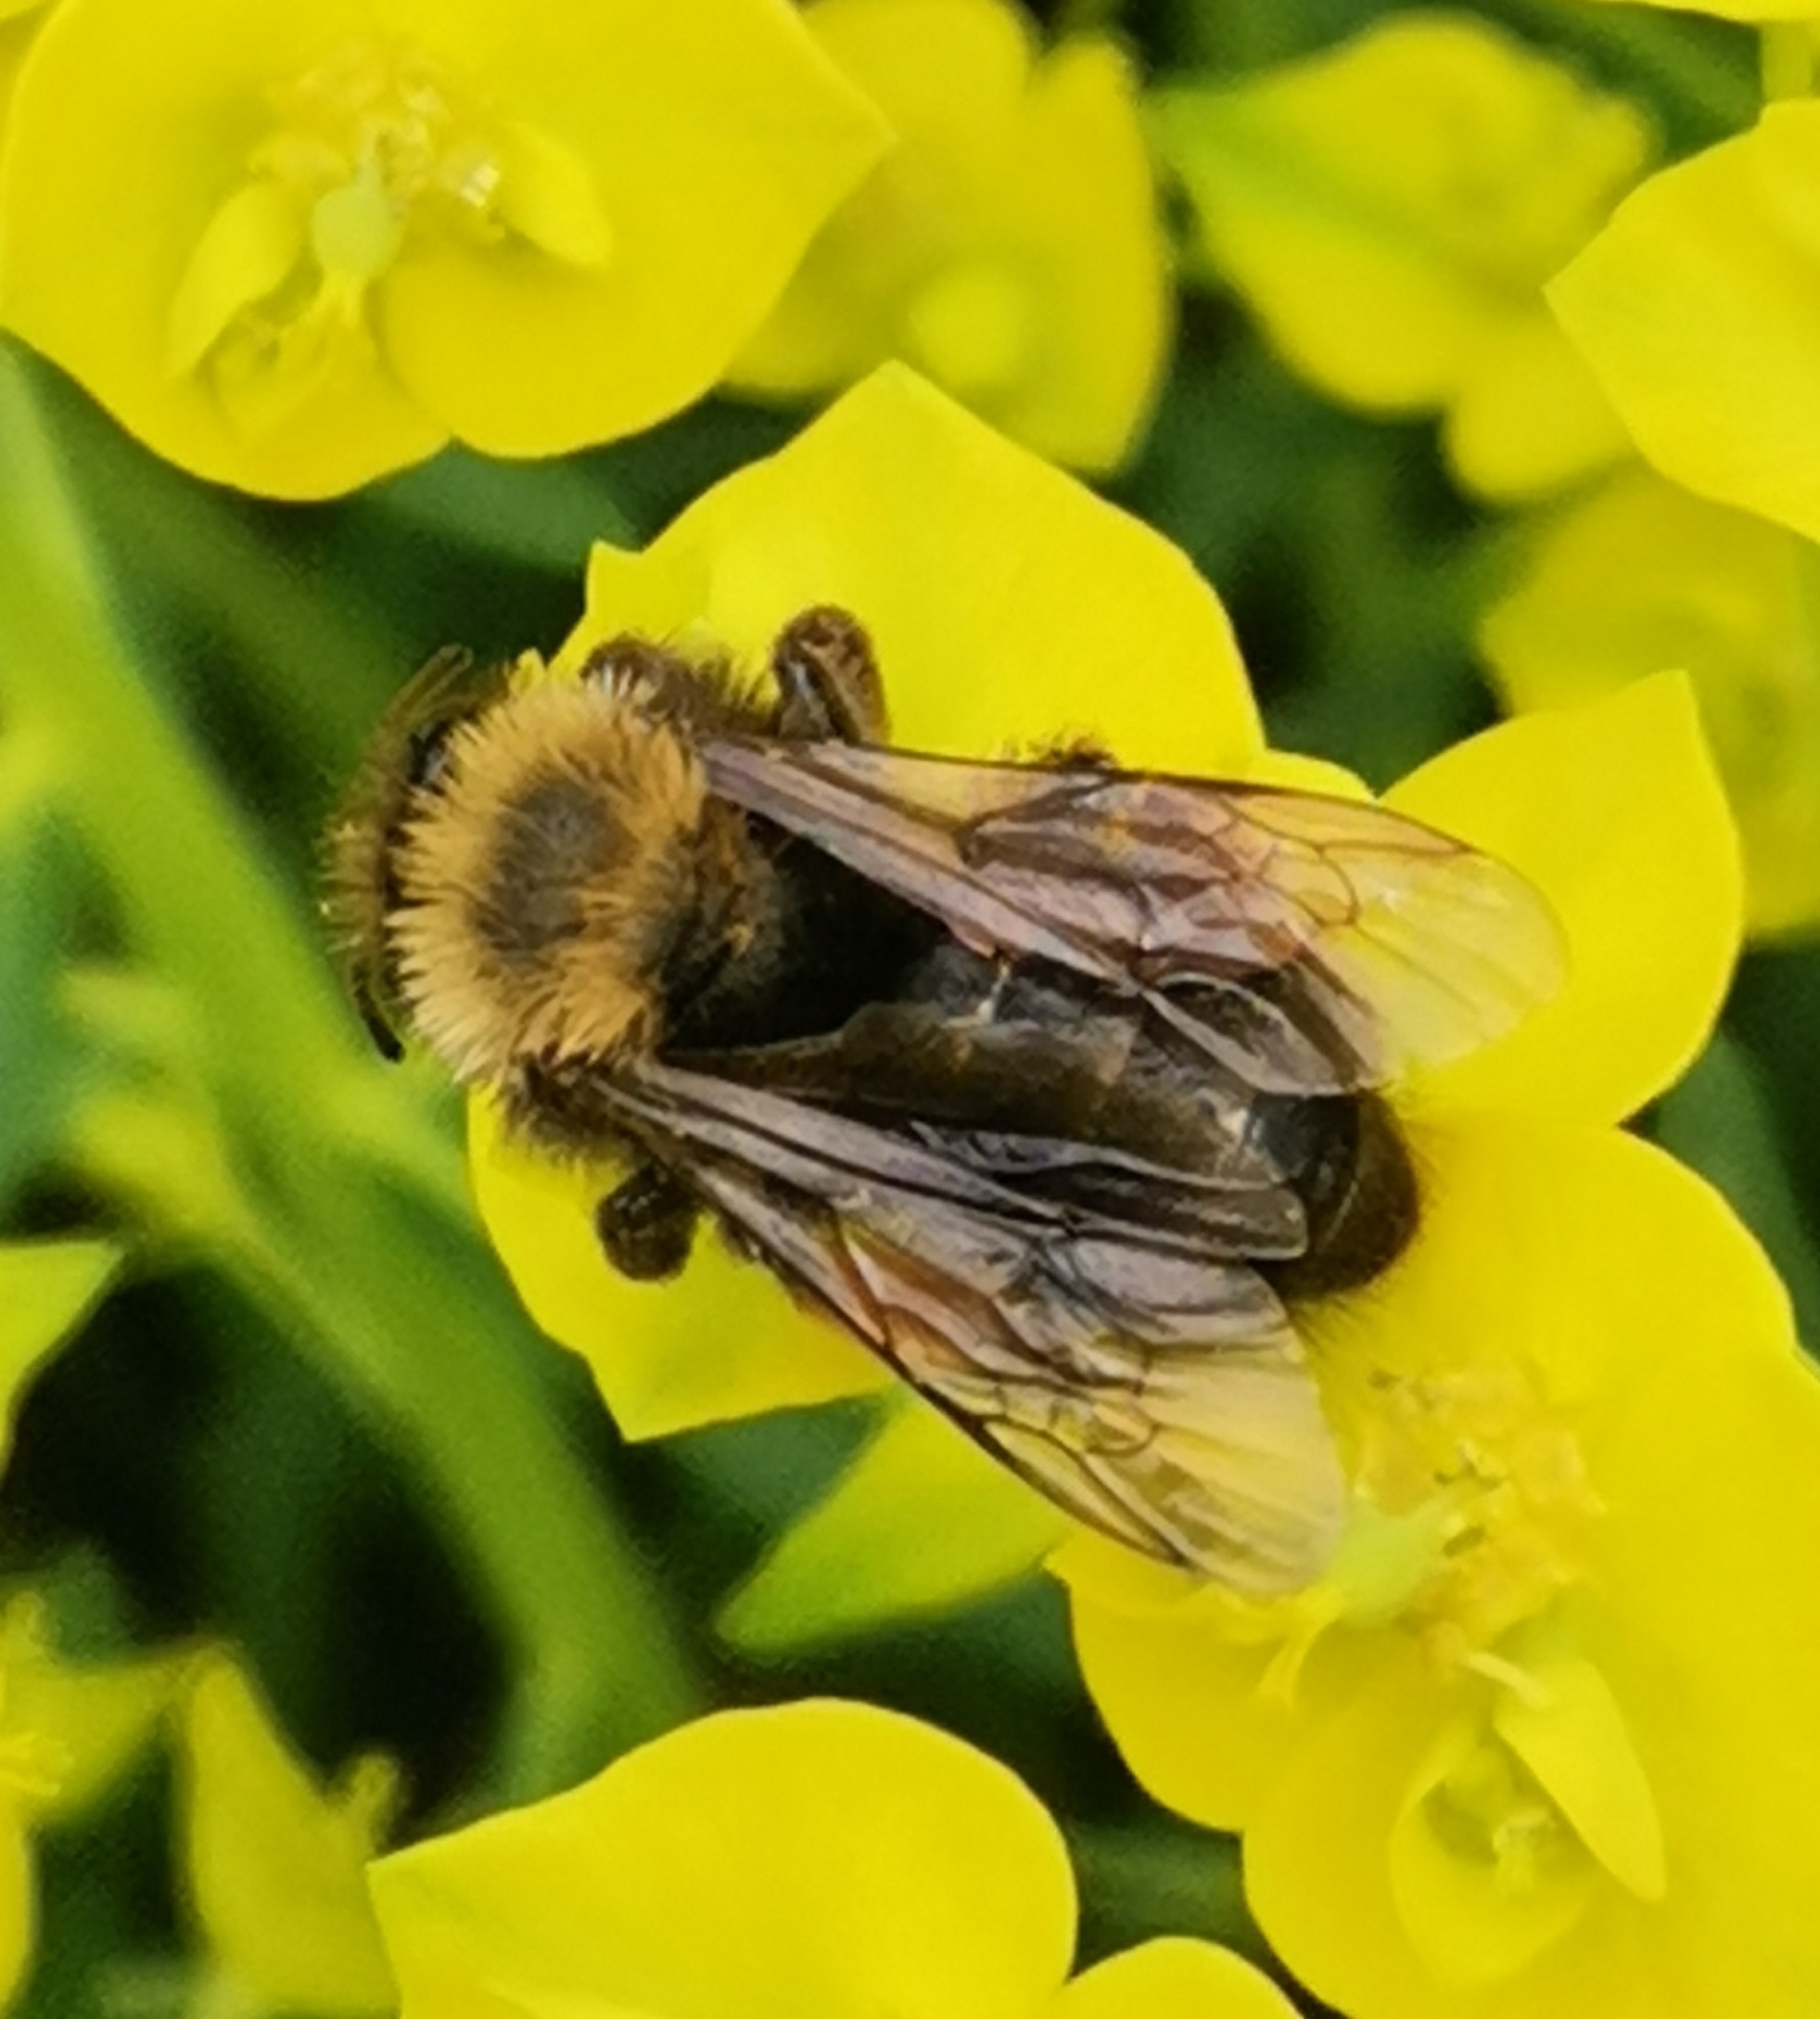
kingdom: Animalia
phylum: Arthropoda
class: Insecta
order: Hymenoptera
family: Andrenidae
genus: Andrena
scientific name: Andrena clarkella
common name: Clarke's mining bee
